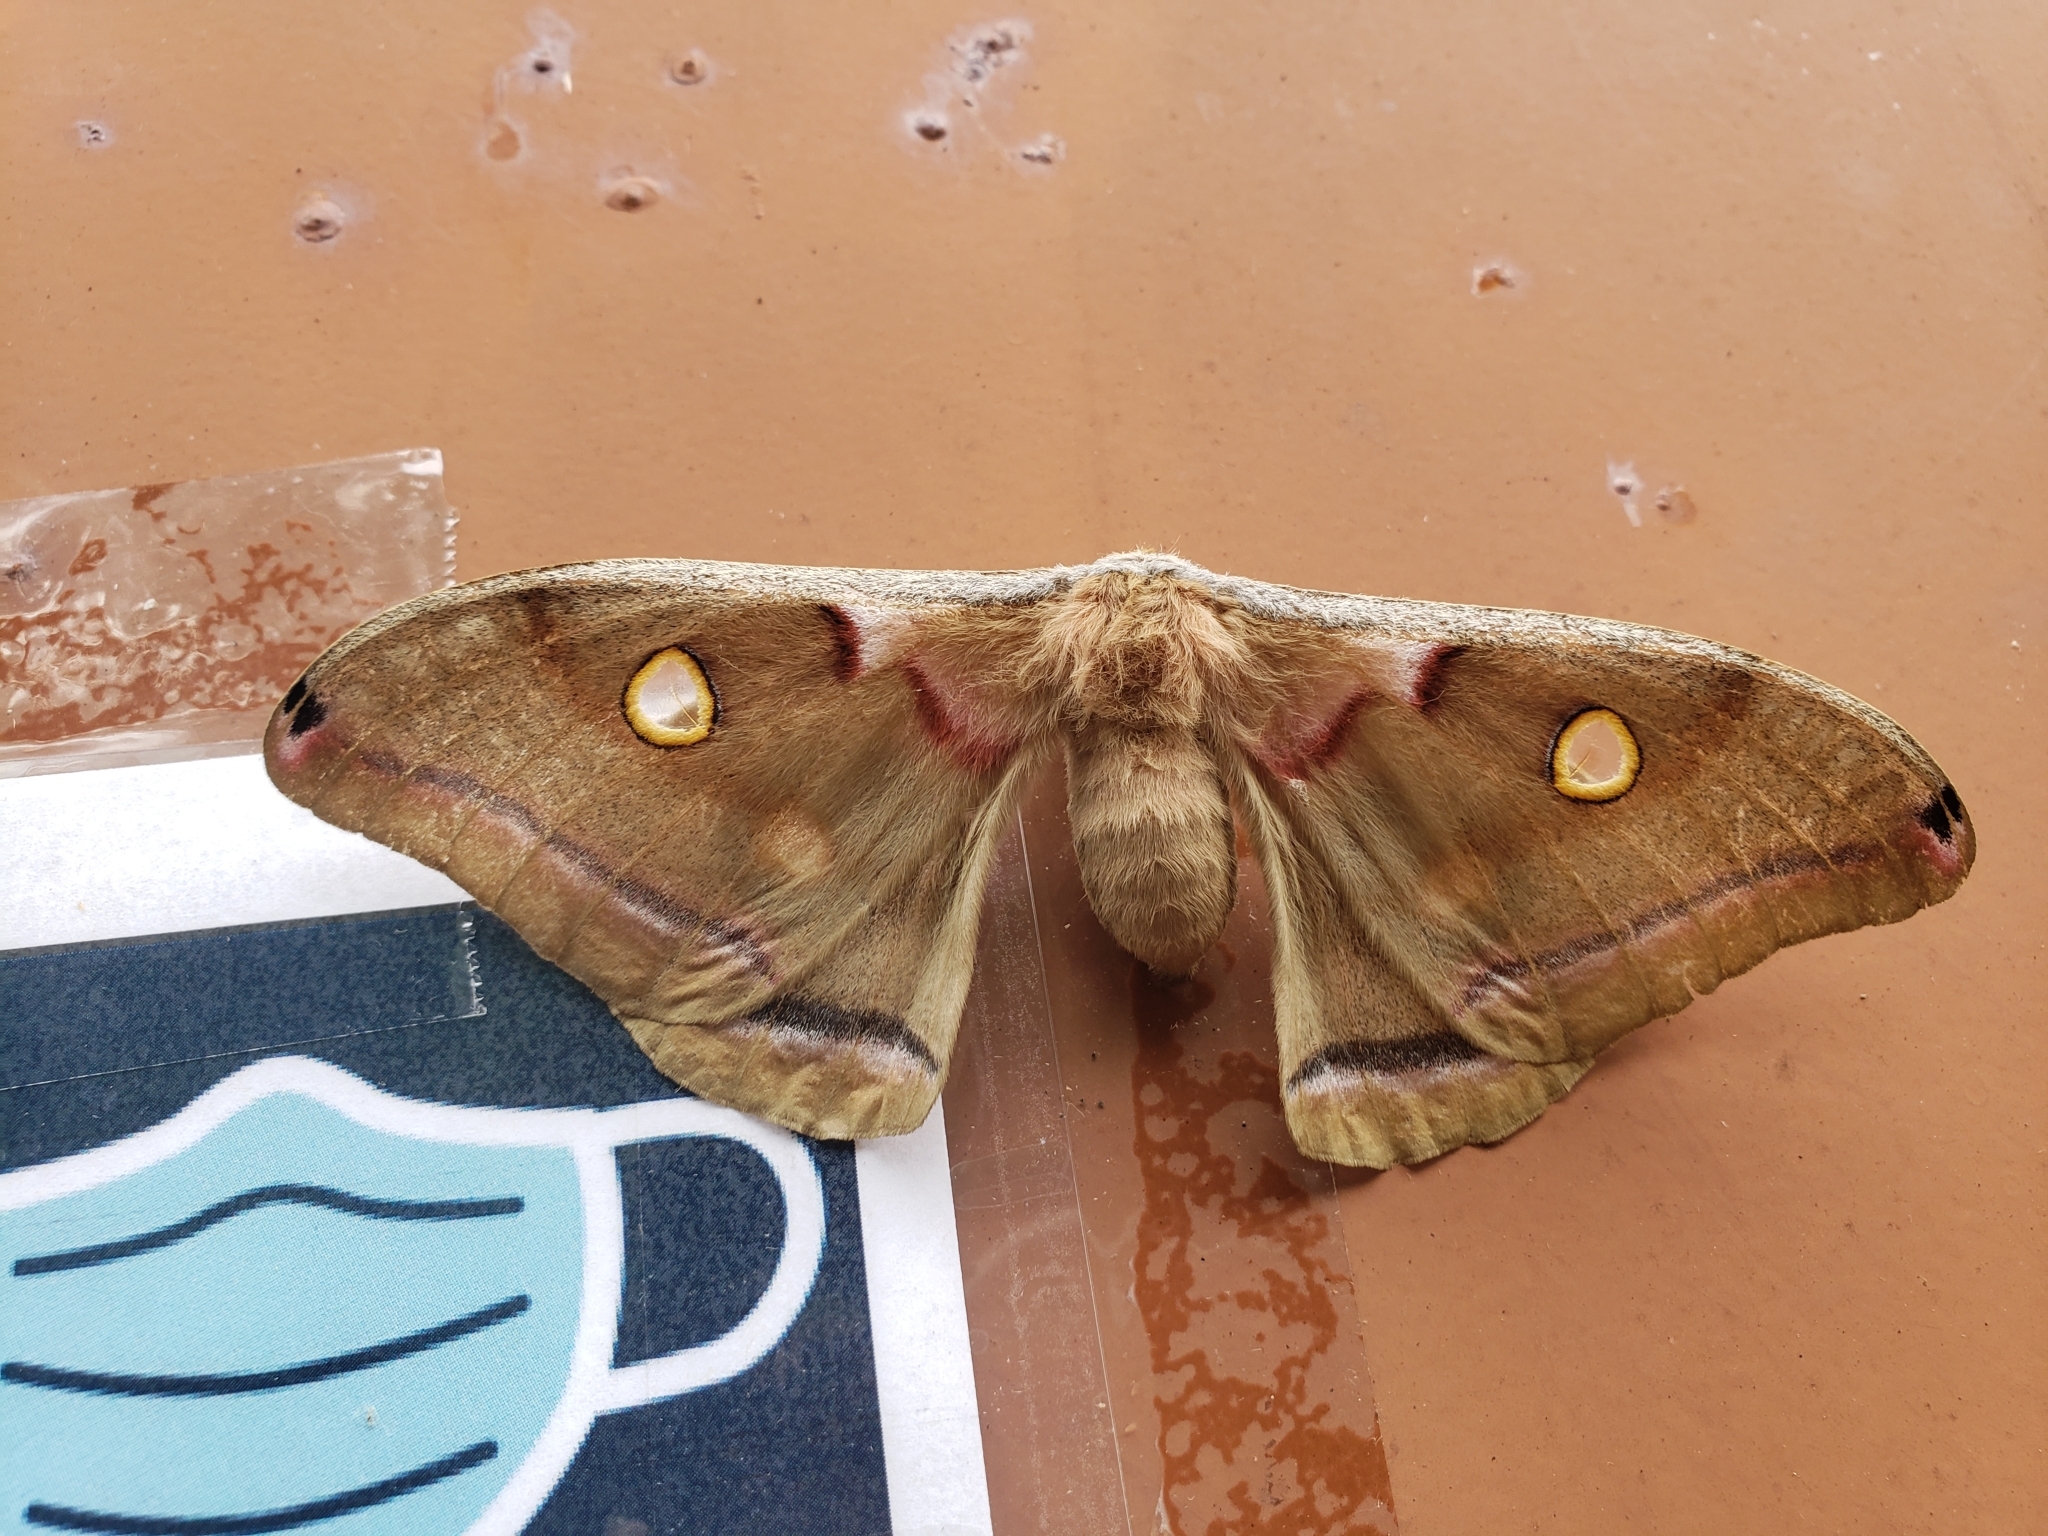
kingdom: Animalia
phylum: Arthropoda
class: Insecta
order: Lepidoptera
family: Saturniidae
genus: Antheraea
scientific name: Antheraea polyphemus
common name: Polyphemus moth
